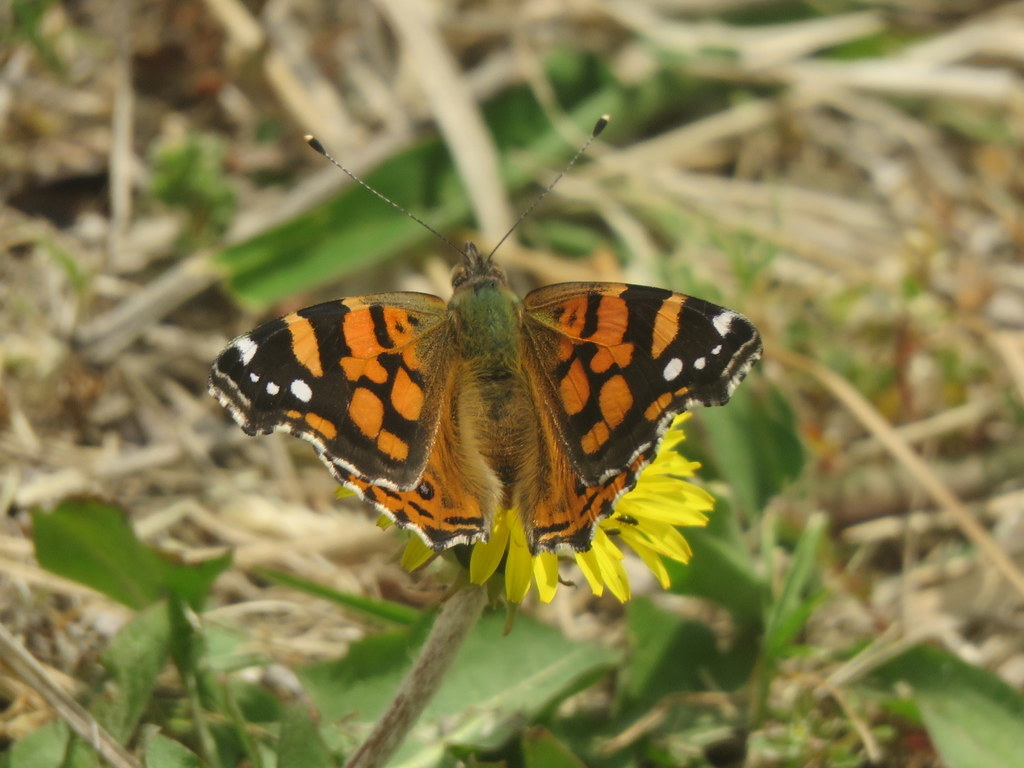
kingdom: Animalia
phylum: Arthropoda
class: Insecta
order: Lepidoptera
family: Nymphalidae
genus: Vanessa
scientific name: Vanessa carye
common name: Subtropical lady
